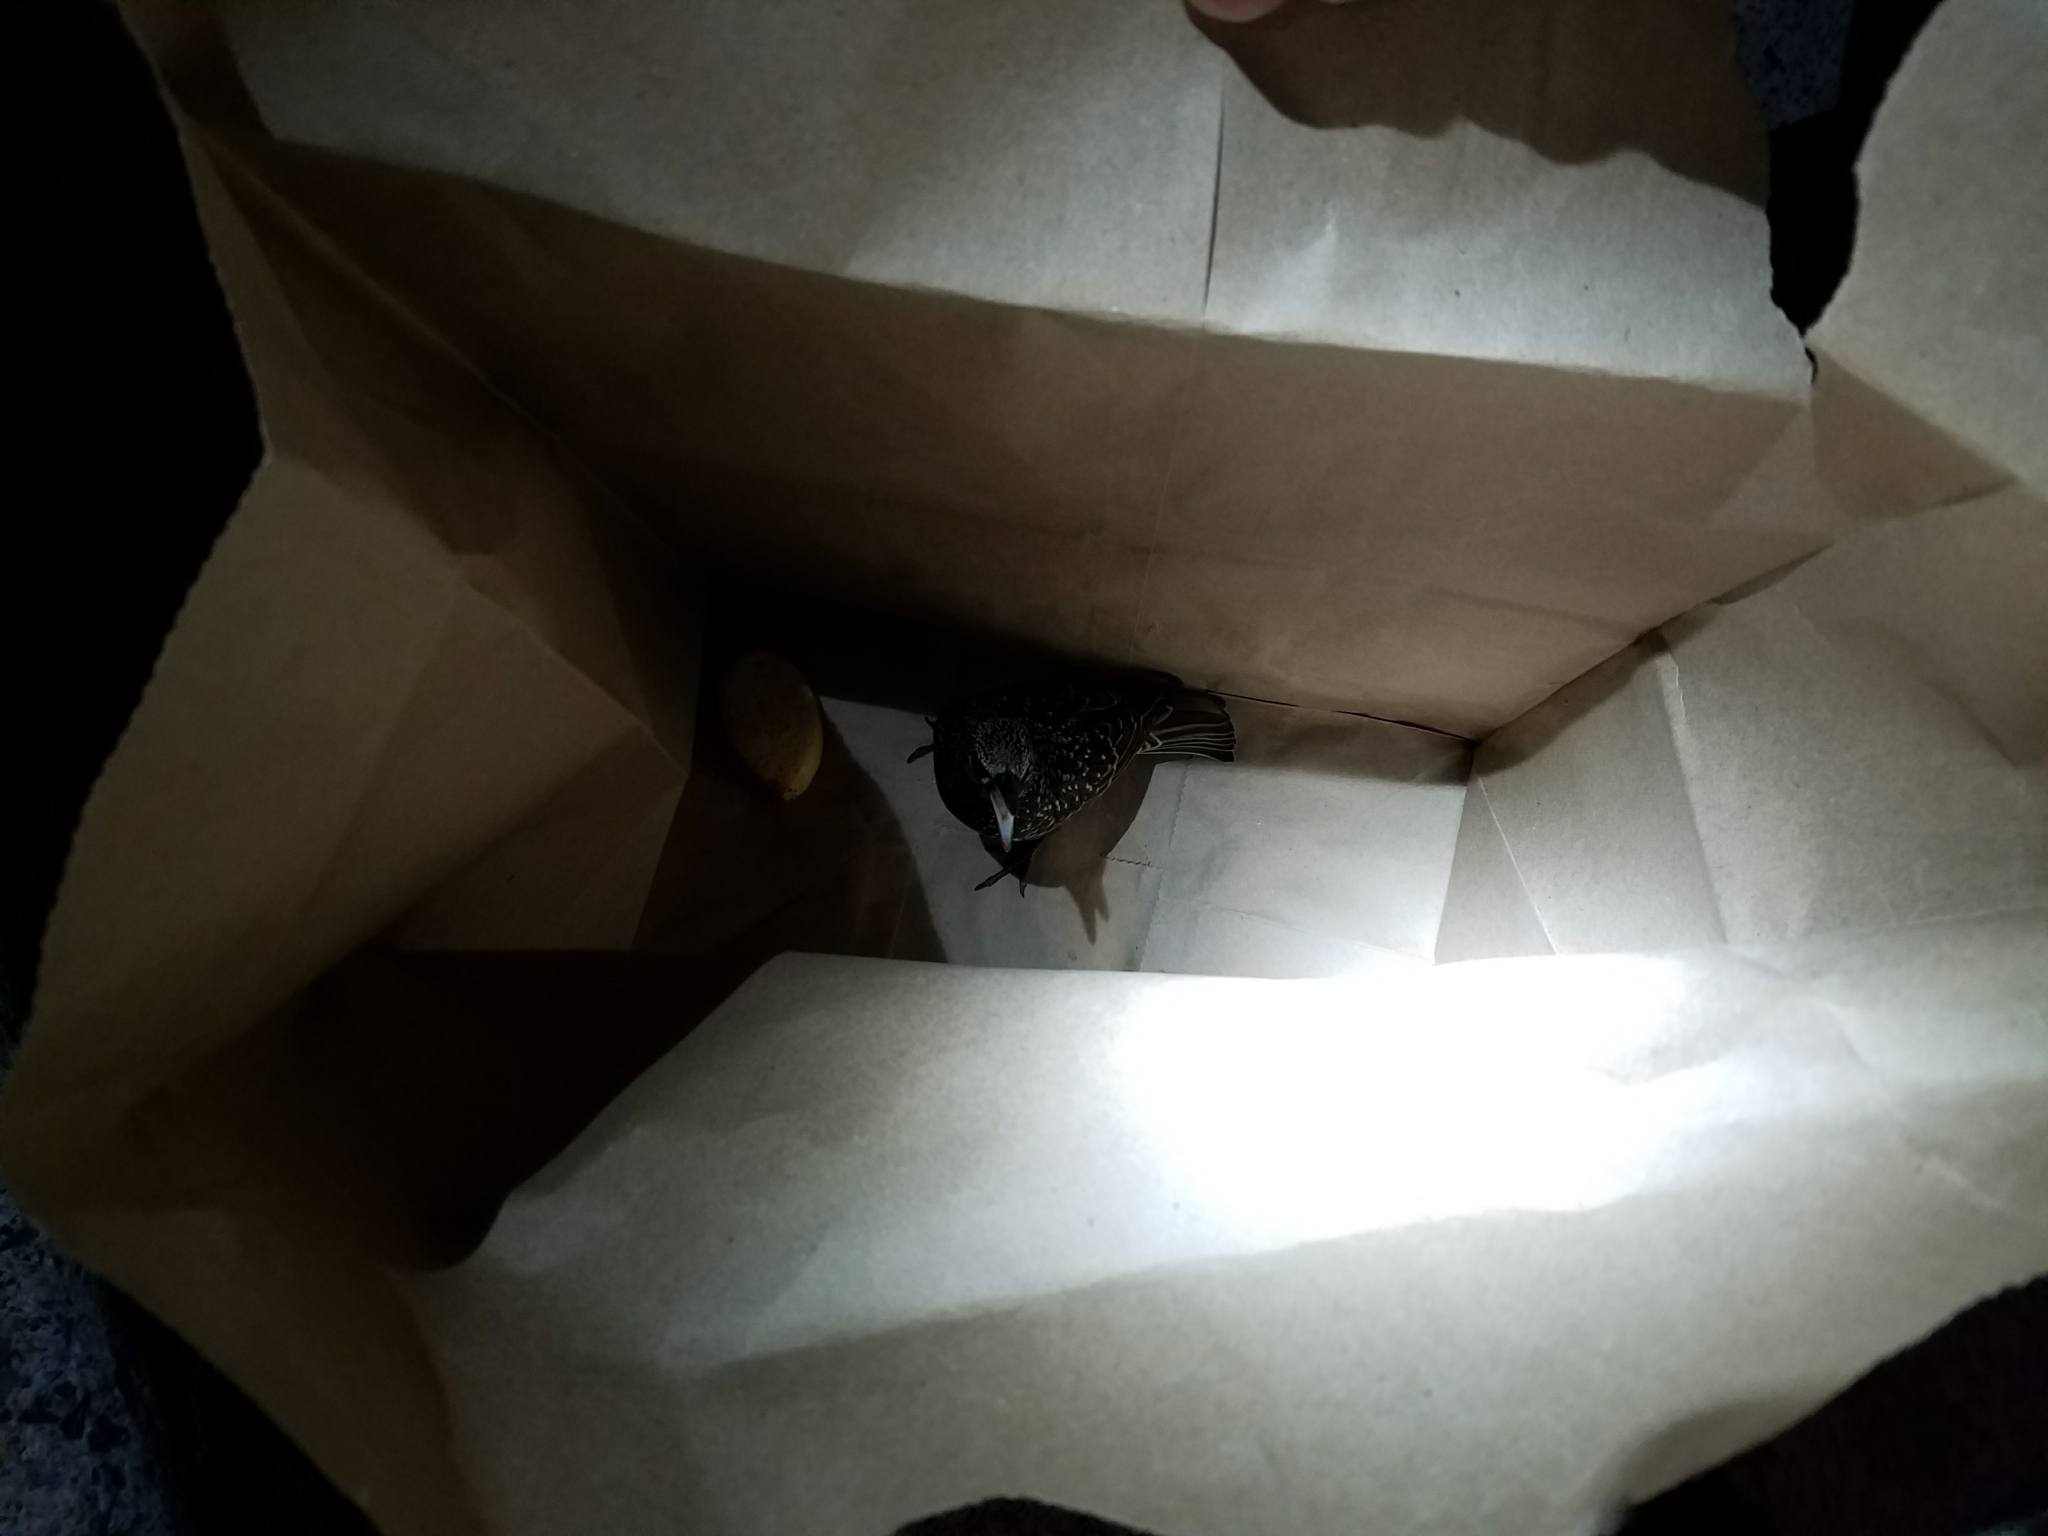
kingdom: Animalia
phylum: Chordata
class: Aves
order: Passeriformes
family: Sturnidae
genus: Sturnus
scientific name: Sturnus vulgaris
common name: Common starling
